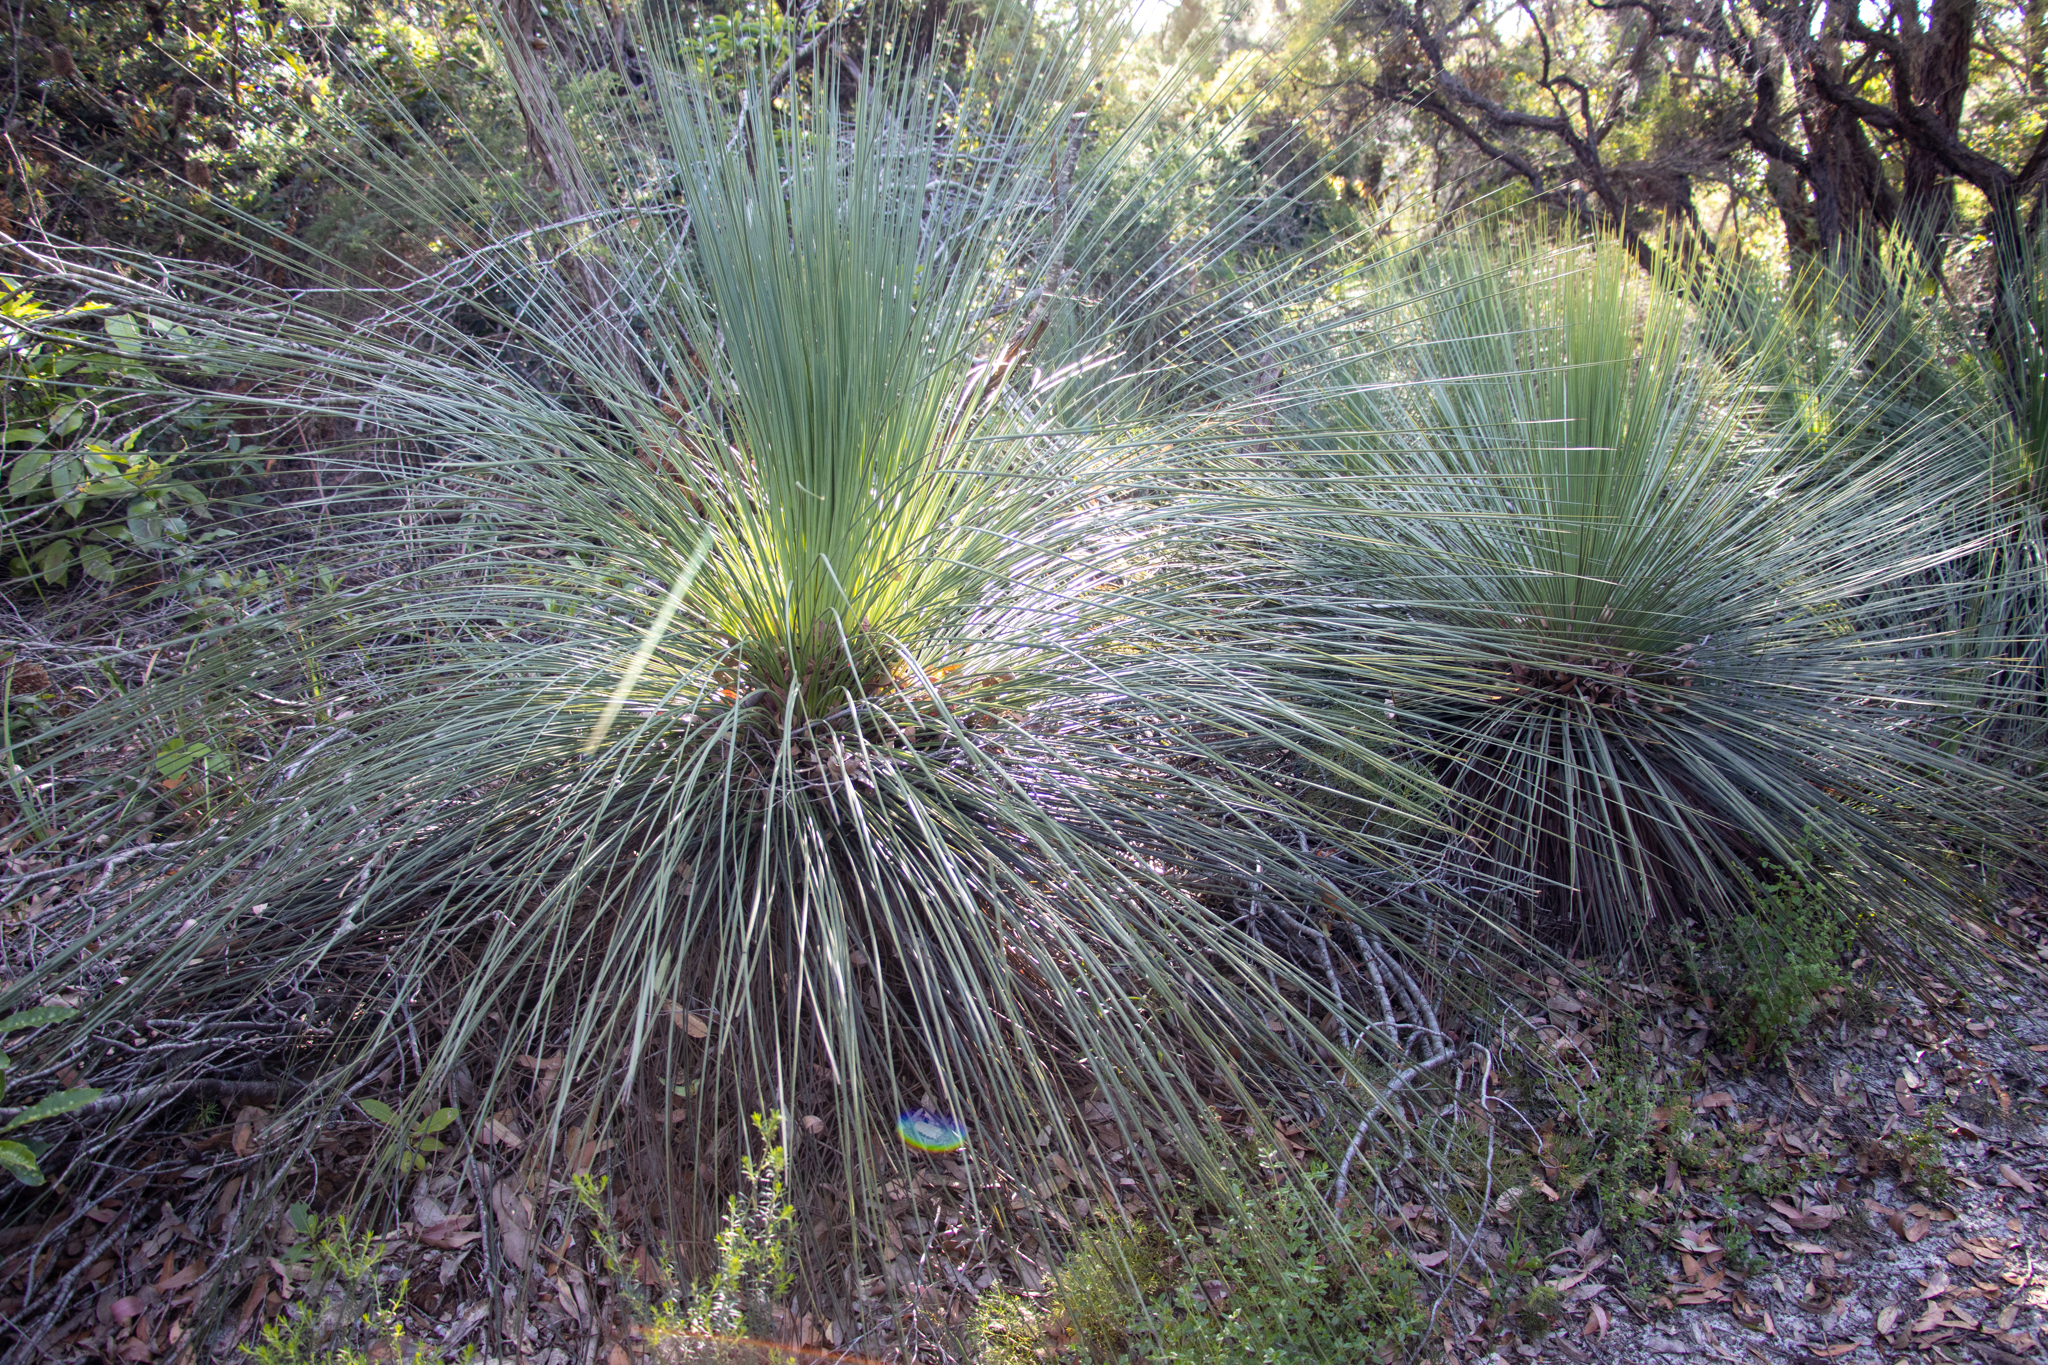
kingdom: Plantae
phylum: Tracheophyta
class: Liliopsida
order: Asparagales
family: Asphodelaceae
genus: Xanthorrhoea
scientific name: Xanthorrhoea resinosa
